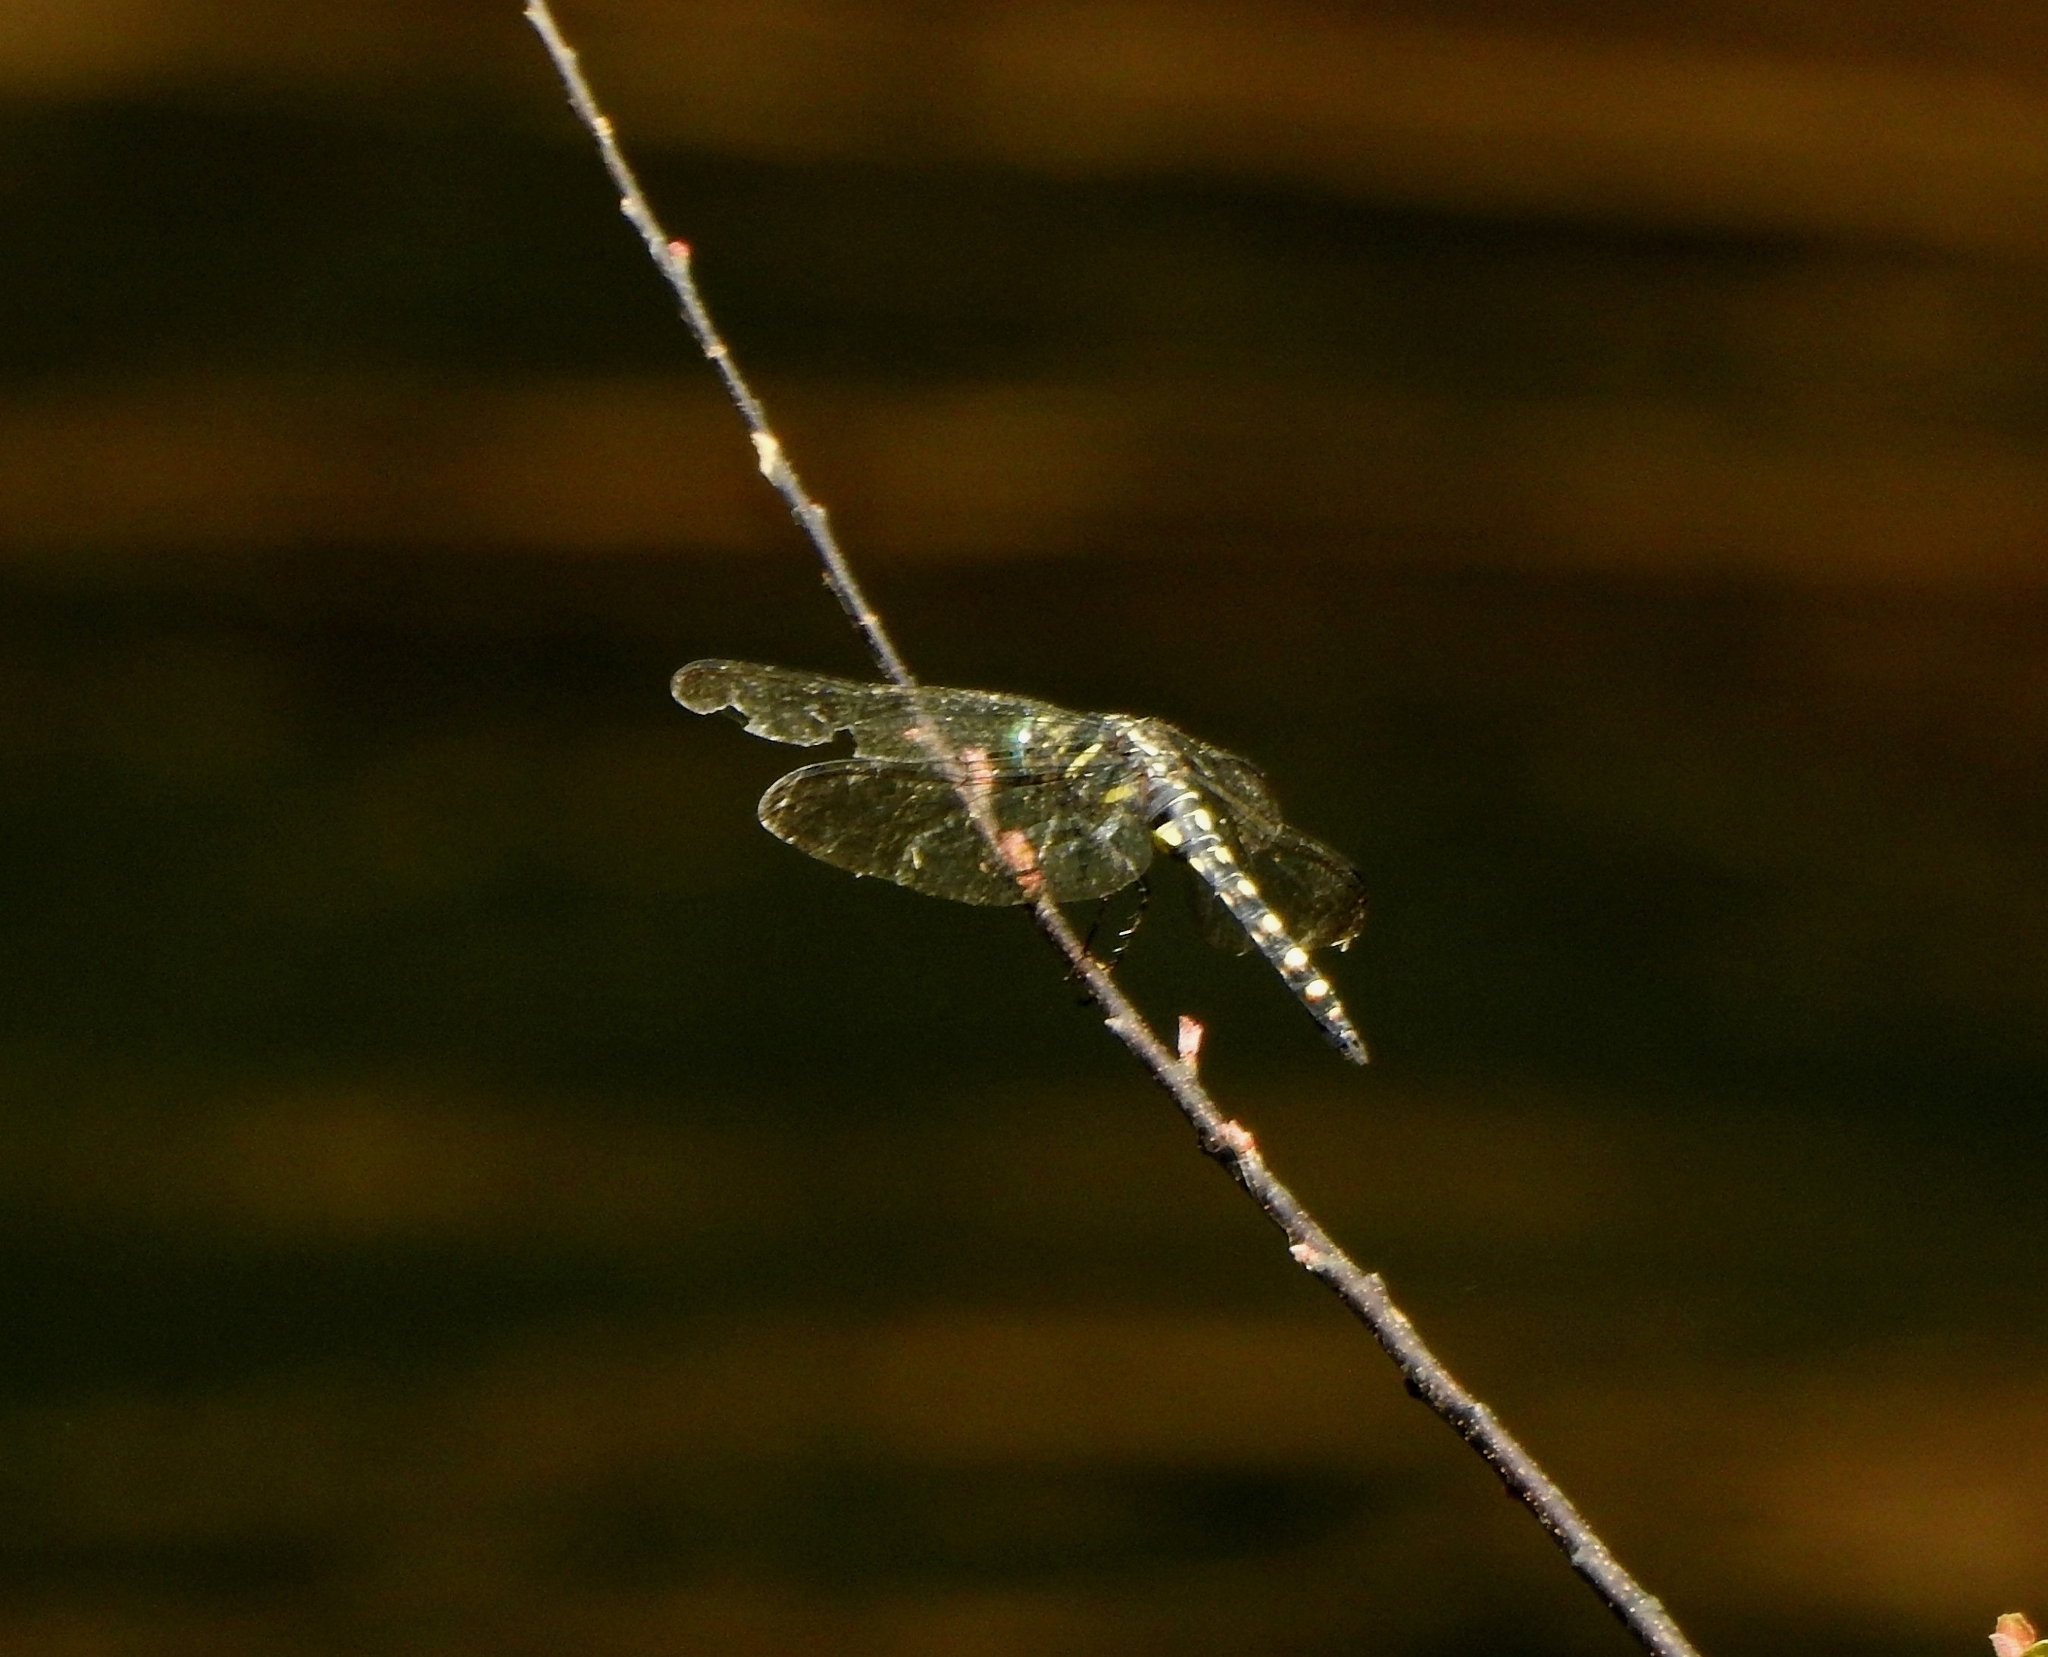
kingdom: Animalia
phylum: Arthropoda
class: Insecta
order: Odonata
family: Libellulidae
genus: Onychothemis
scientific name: Onychothemis testacea
